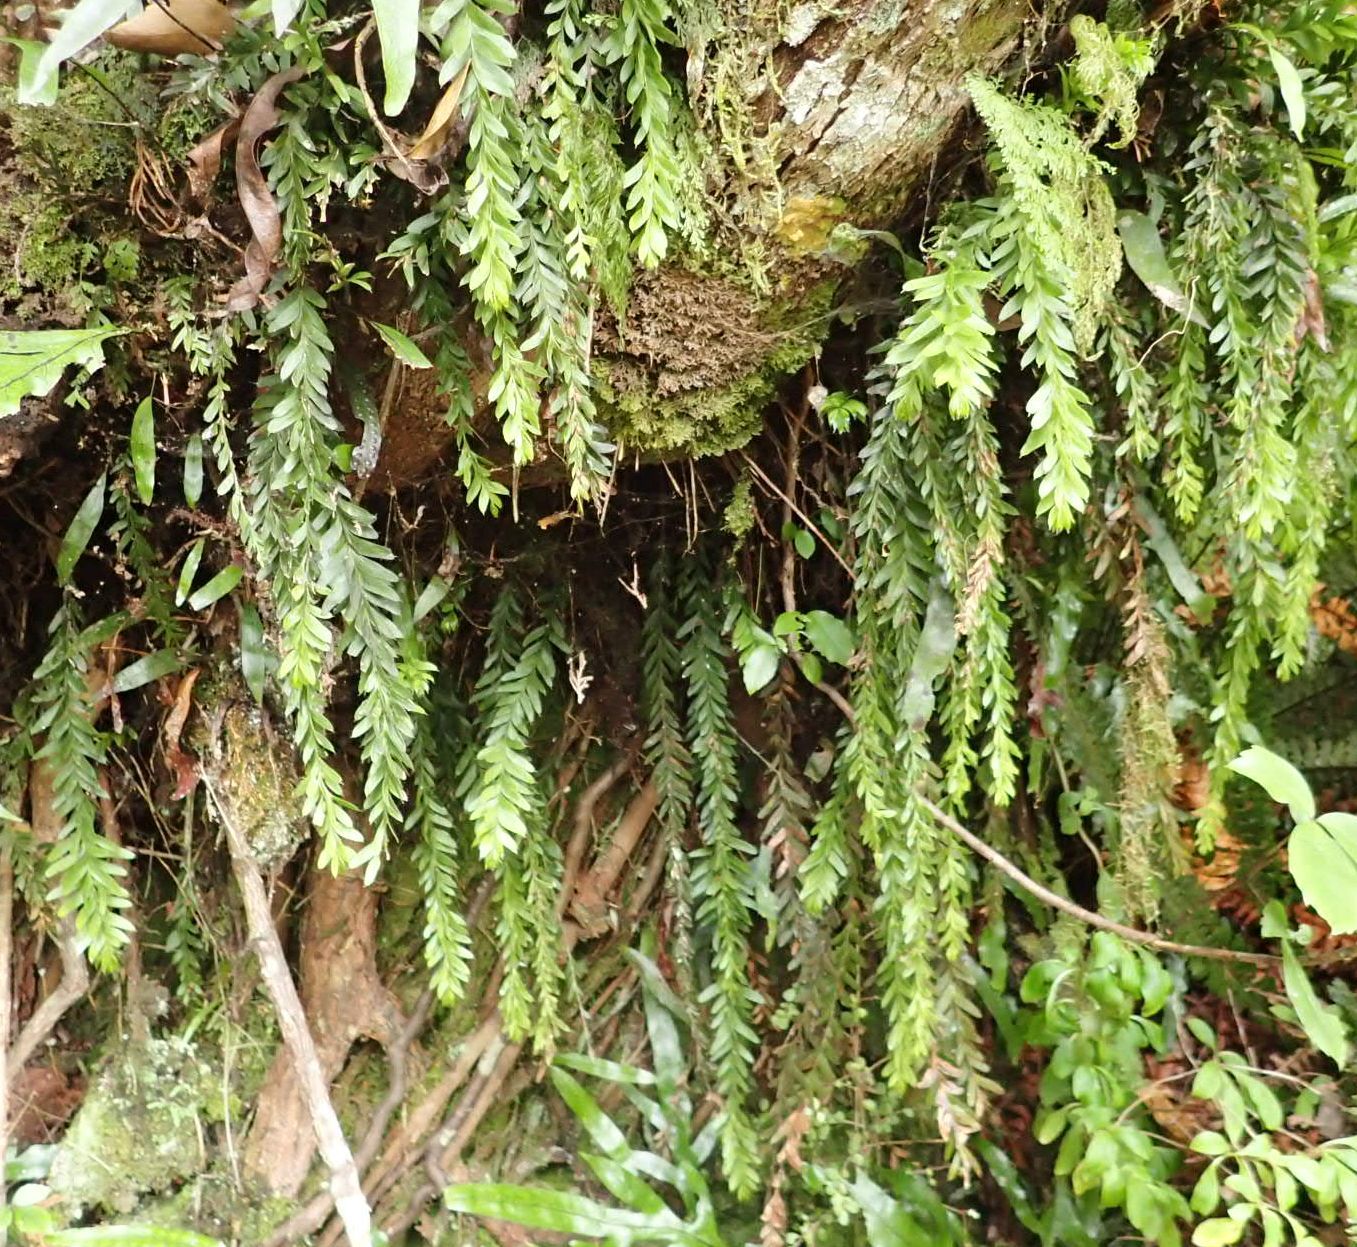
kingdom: Plantae
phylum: Tracheophyta
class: Polypodiopsida
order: Psilotales
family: Psilotaceae
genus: Tmesipteris
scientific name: Tmesipteris tannensis
